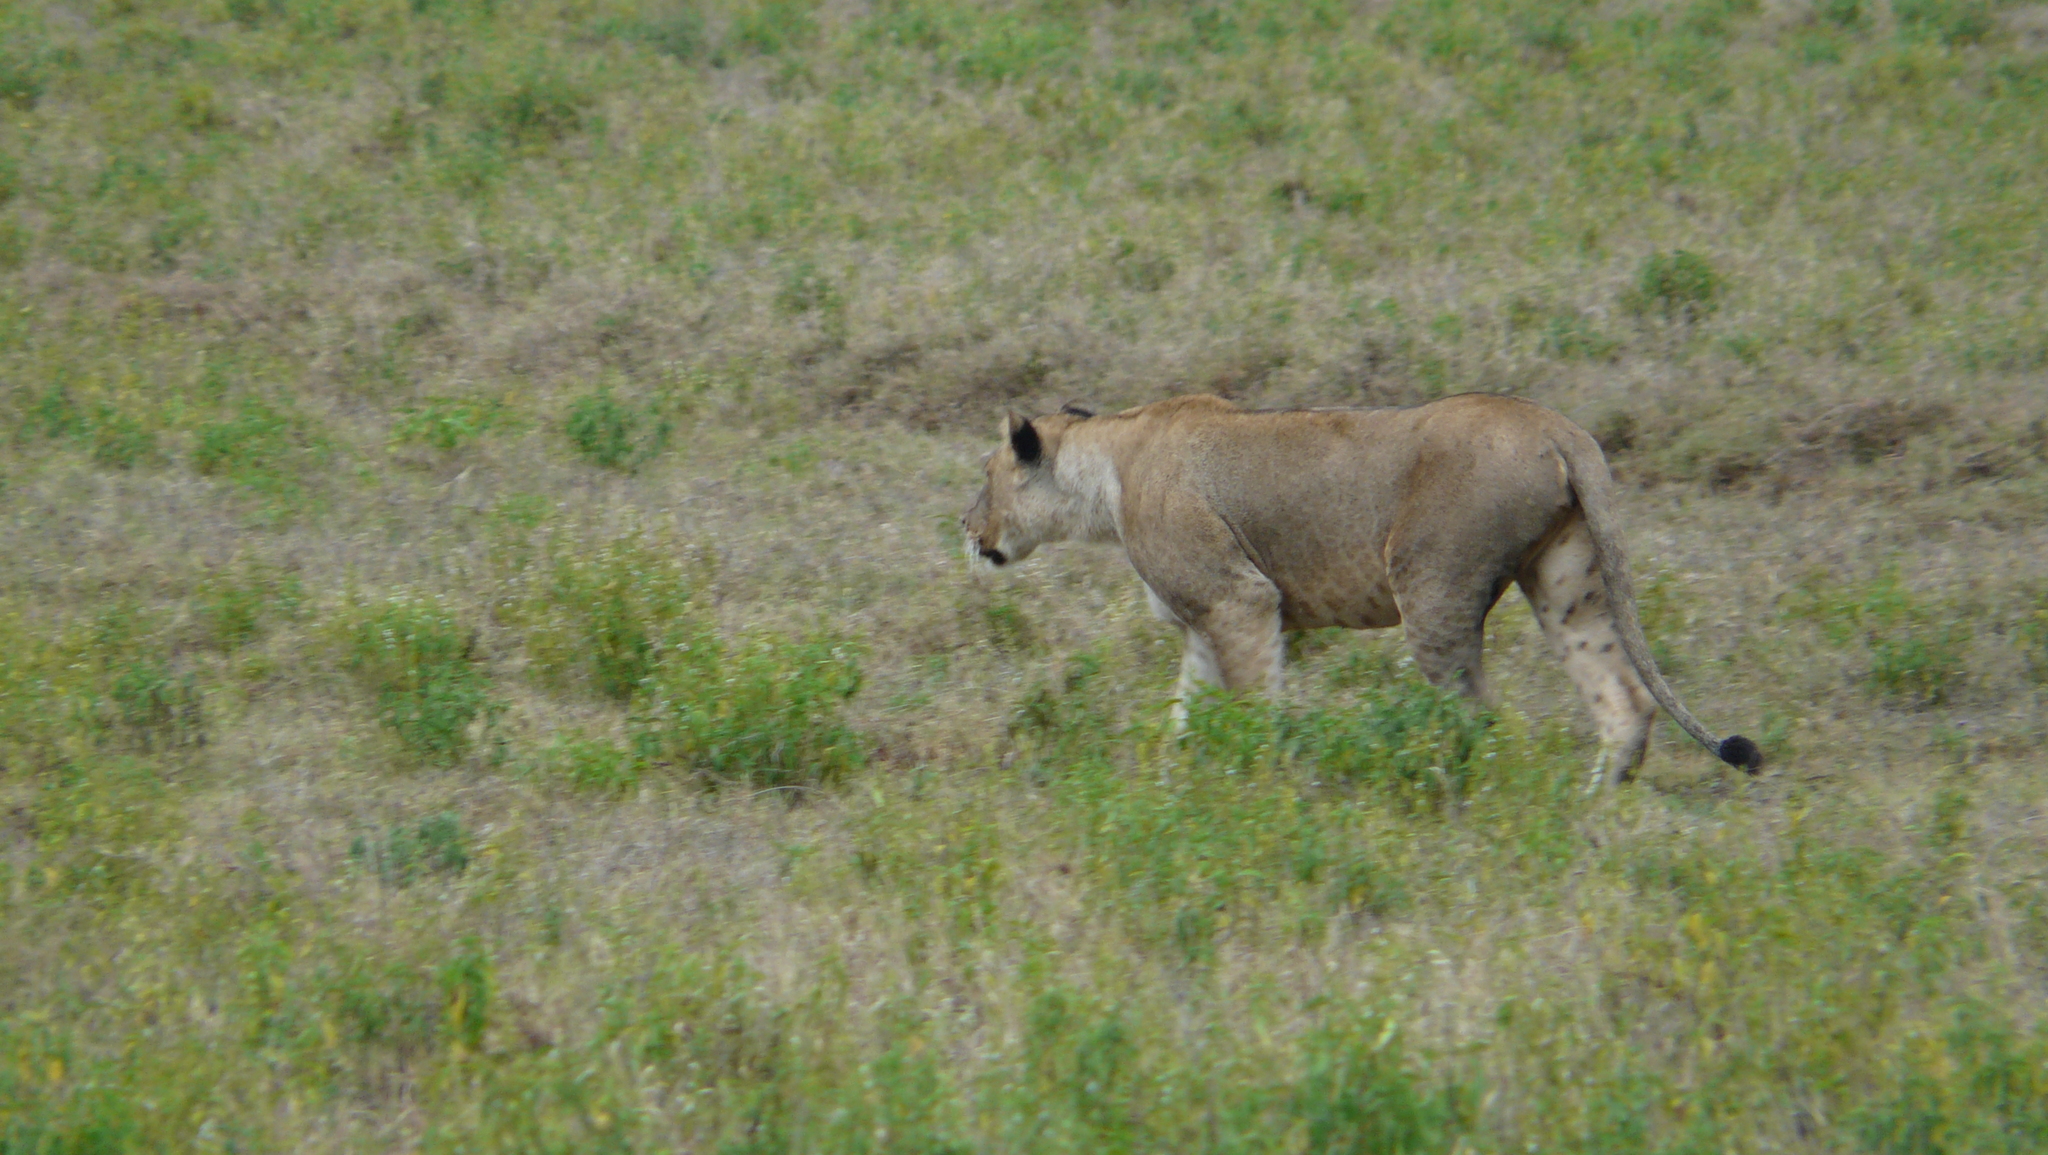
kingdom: Animalia
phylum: Chordata
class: Mammalia
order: Carnivora
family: Felidae
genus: Panthera
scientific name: Panthera leo
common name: Lion
